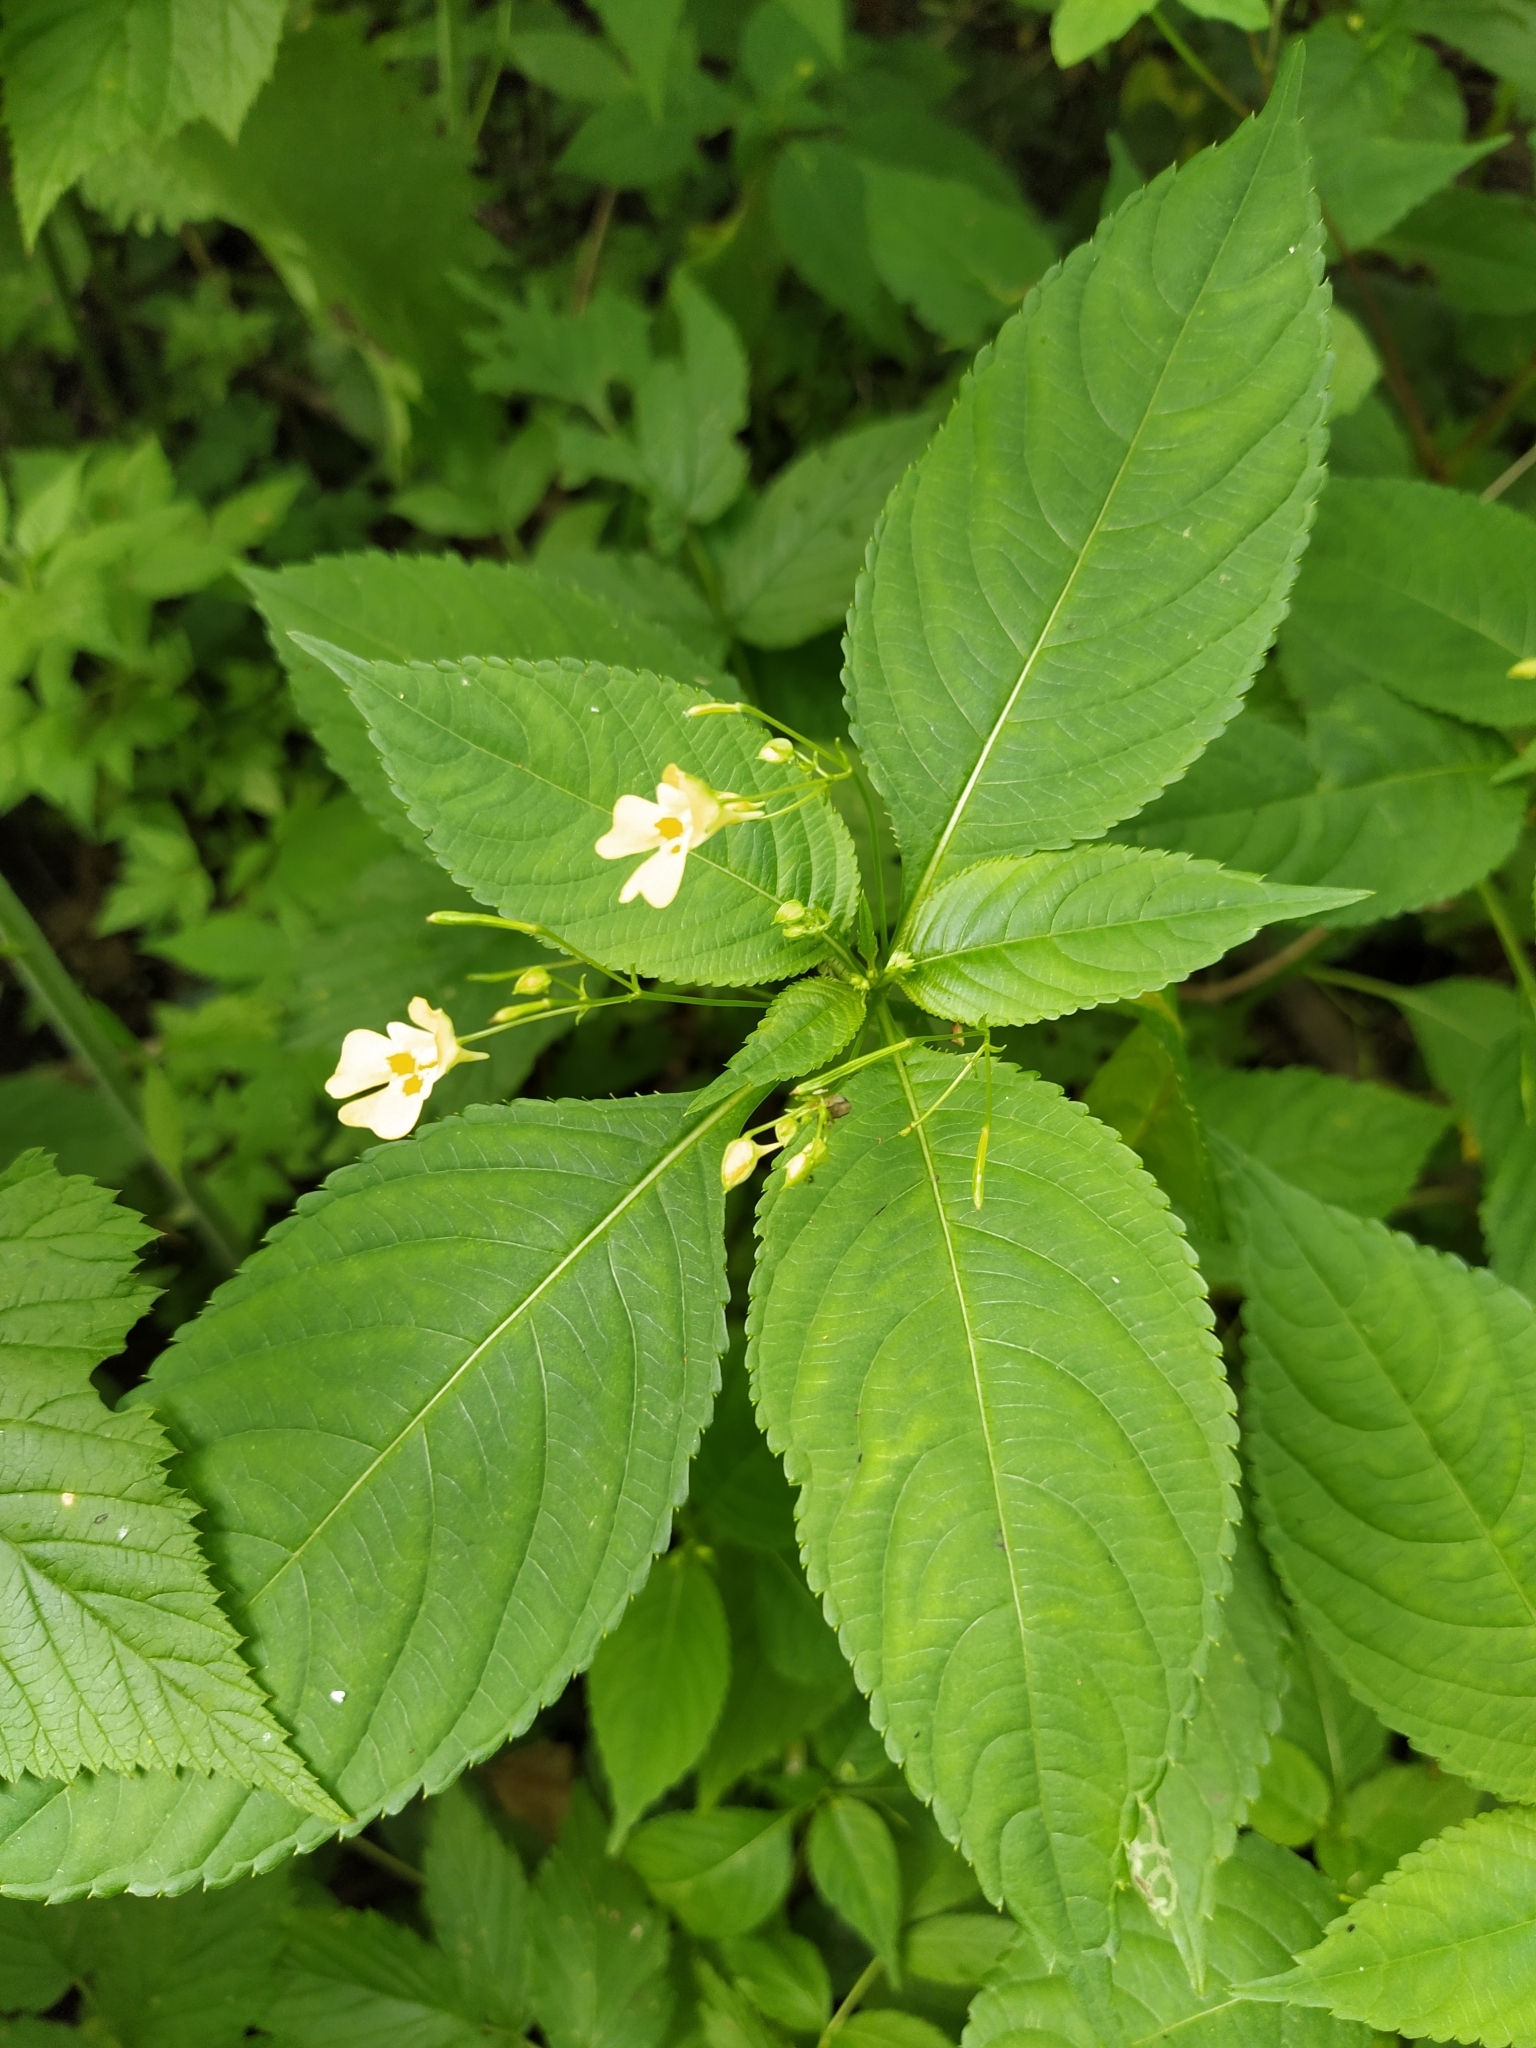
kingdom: Plantae
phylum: Tracheophyta
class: Magnoliopsida
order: Ericales
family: Balsaminaceae
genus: Impatiens
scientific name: Impatiens parviflora
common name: Small balsam
